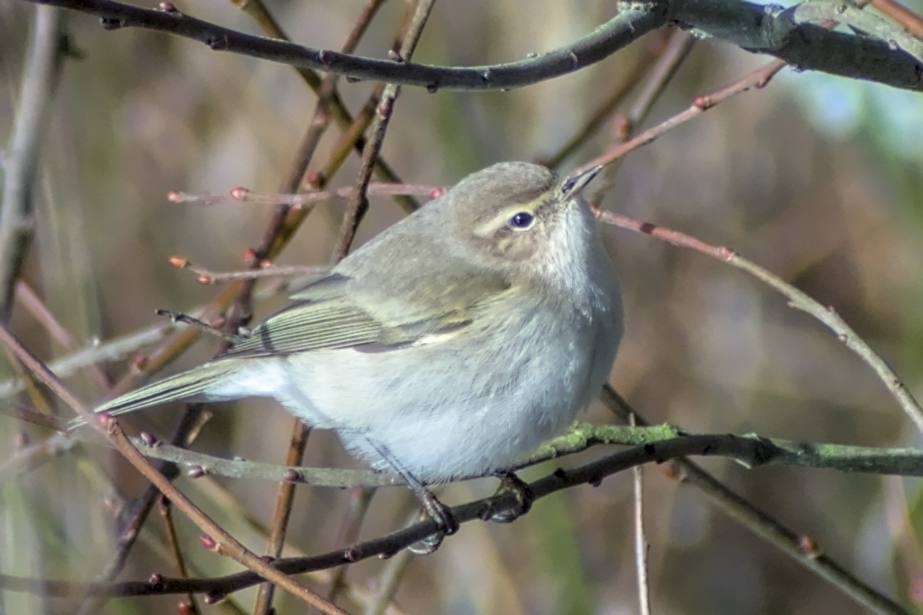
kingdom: Animalia
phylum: Chordata
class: Aves
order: Passeriformes
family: Phylloscopidae
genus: Phylloscopus
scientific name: Phylloscopus collybita
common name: Common chiffchaff
